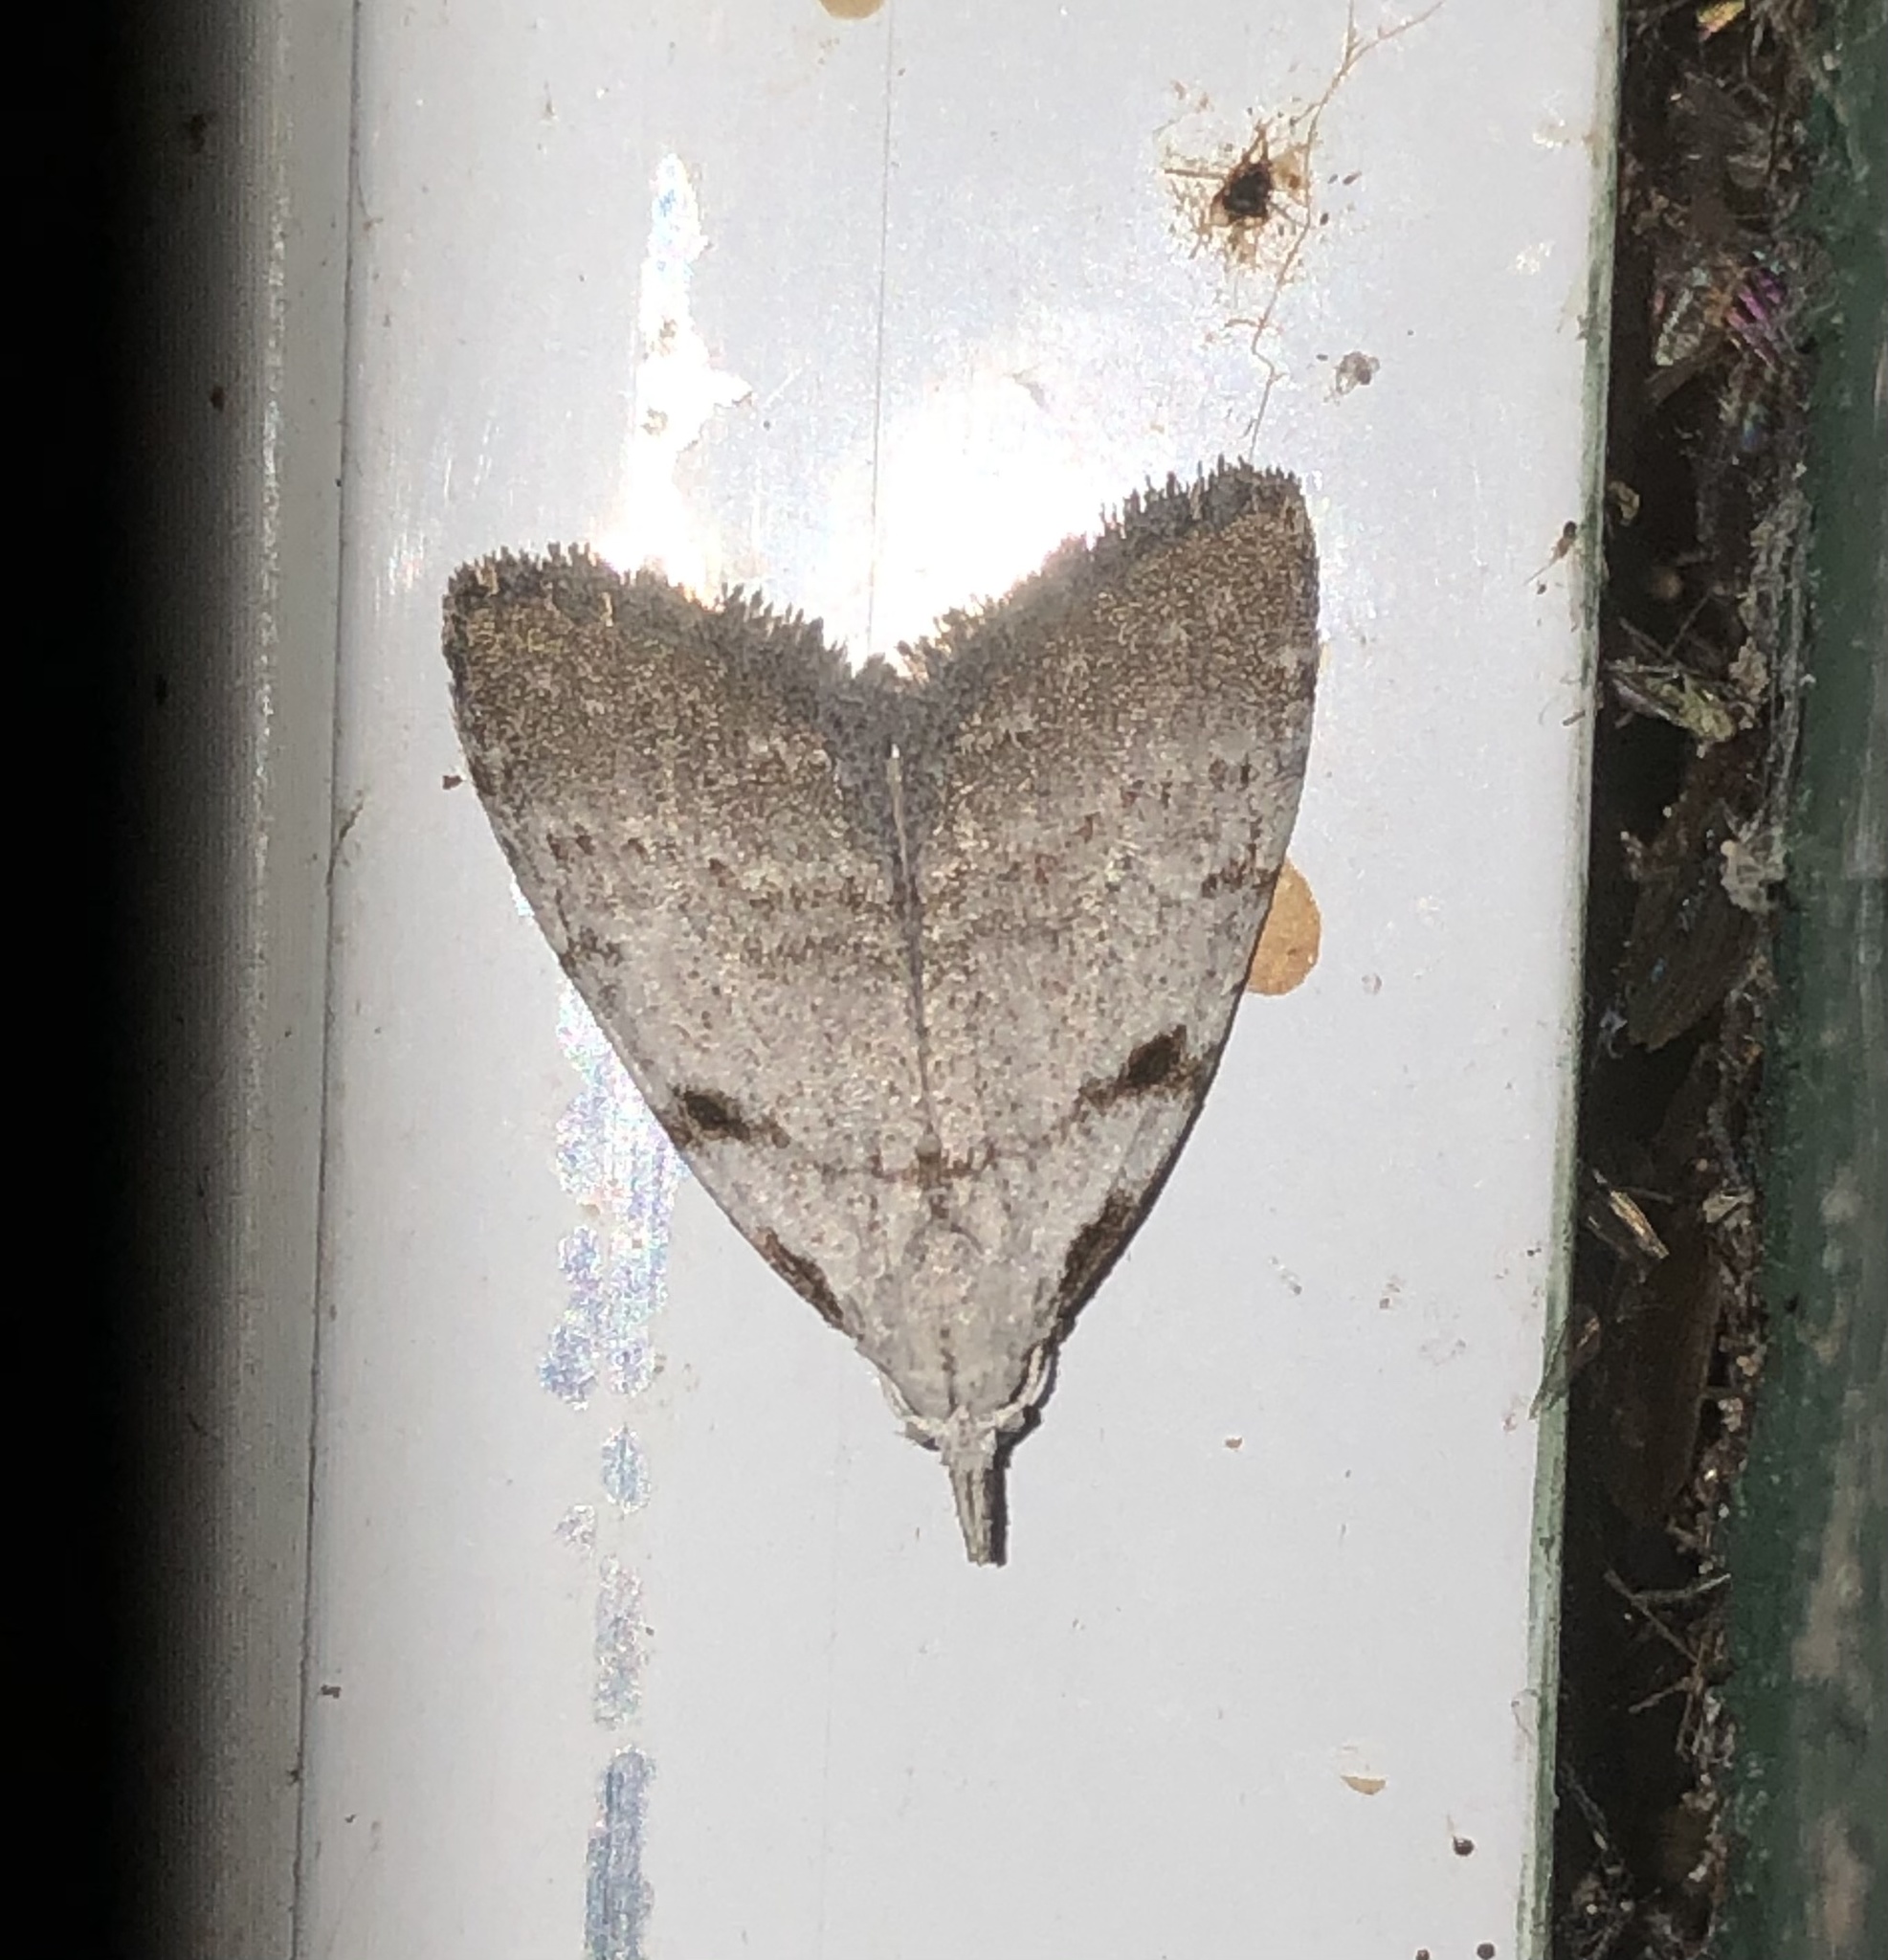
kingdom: Animalia
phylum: Arthropoda
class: Insecta
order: Lepidoptera
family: Nolidae
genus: Nola
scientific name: Nola minna
